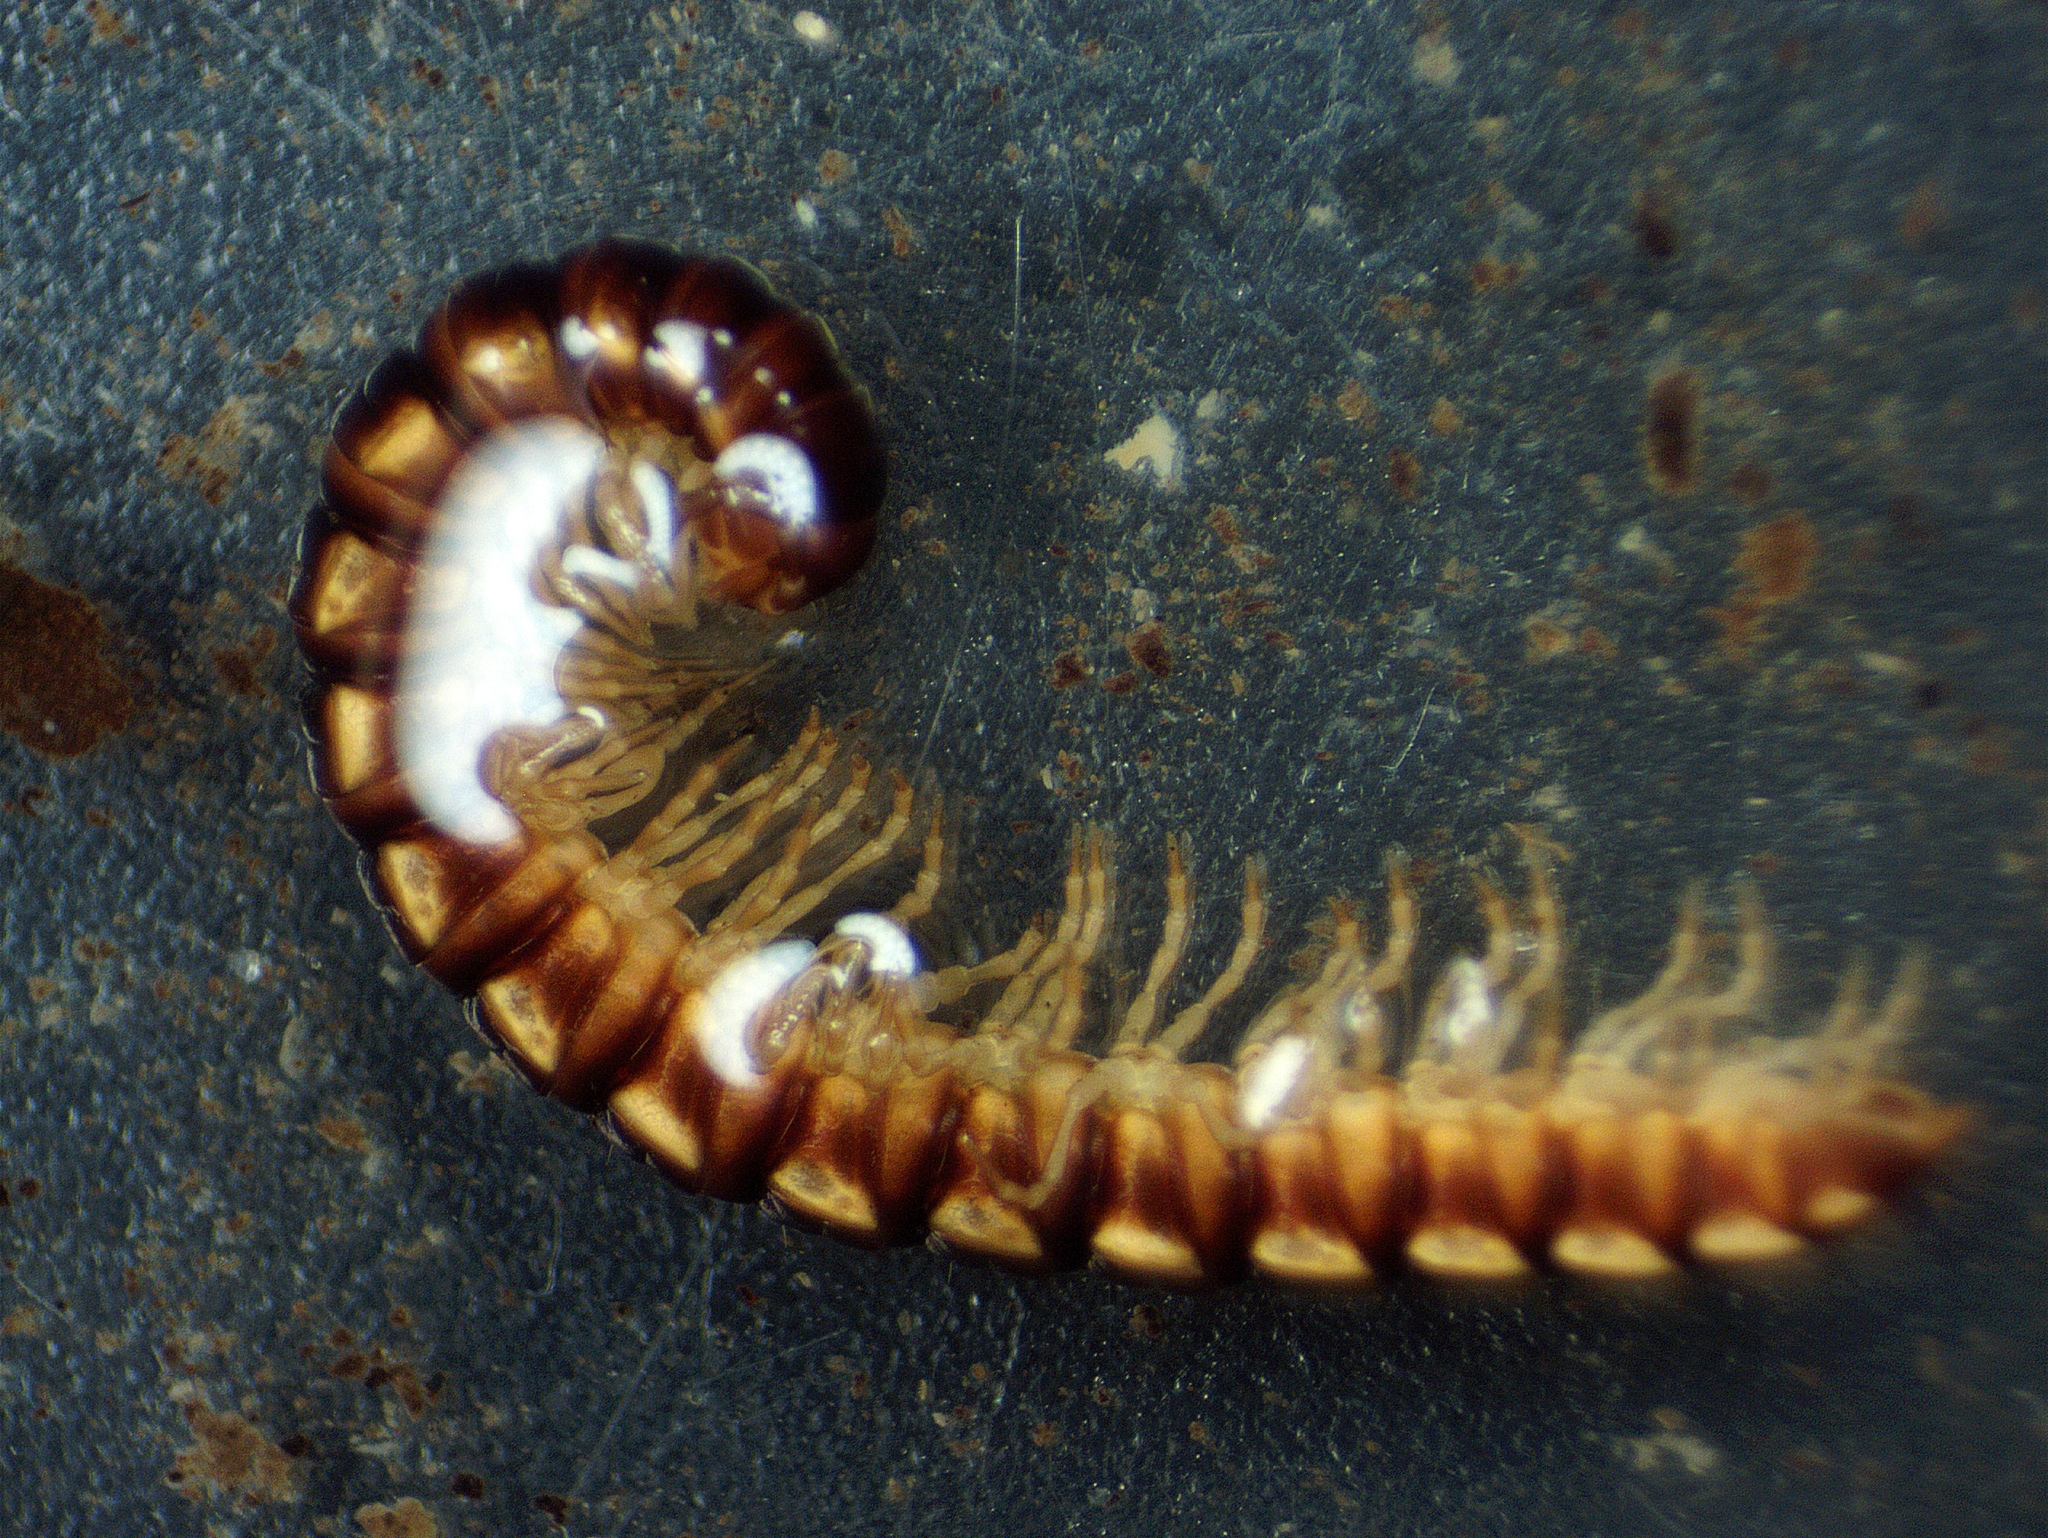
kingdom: Animalia
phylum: Arthropoda
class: Diplopoda
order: Polydesmida
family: Paradoxosomatidae
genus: Oxidus
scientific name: Oxidus gracilis
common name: Greenhouse millipede
